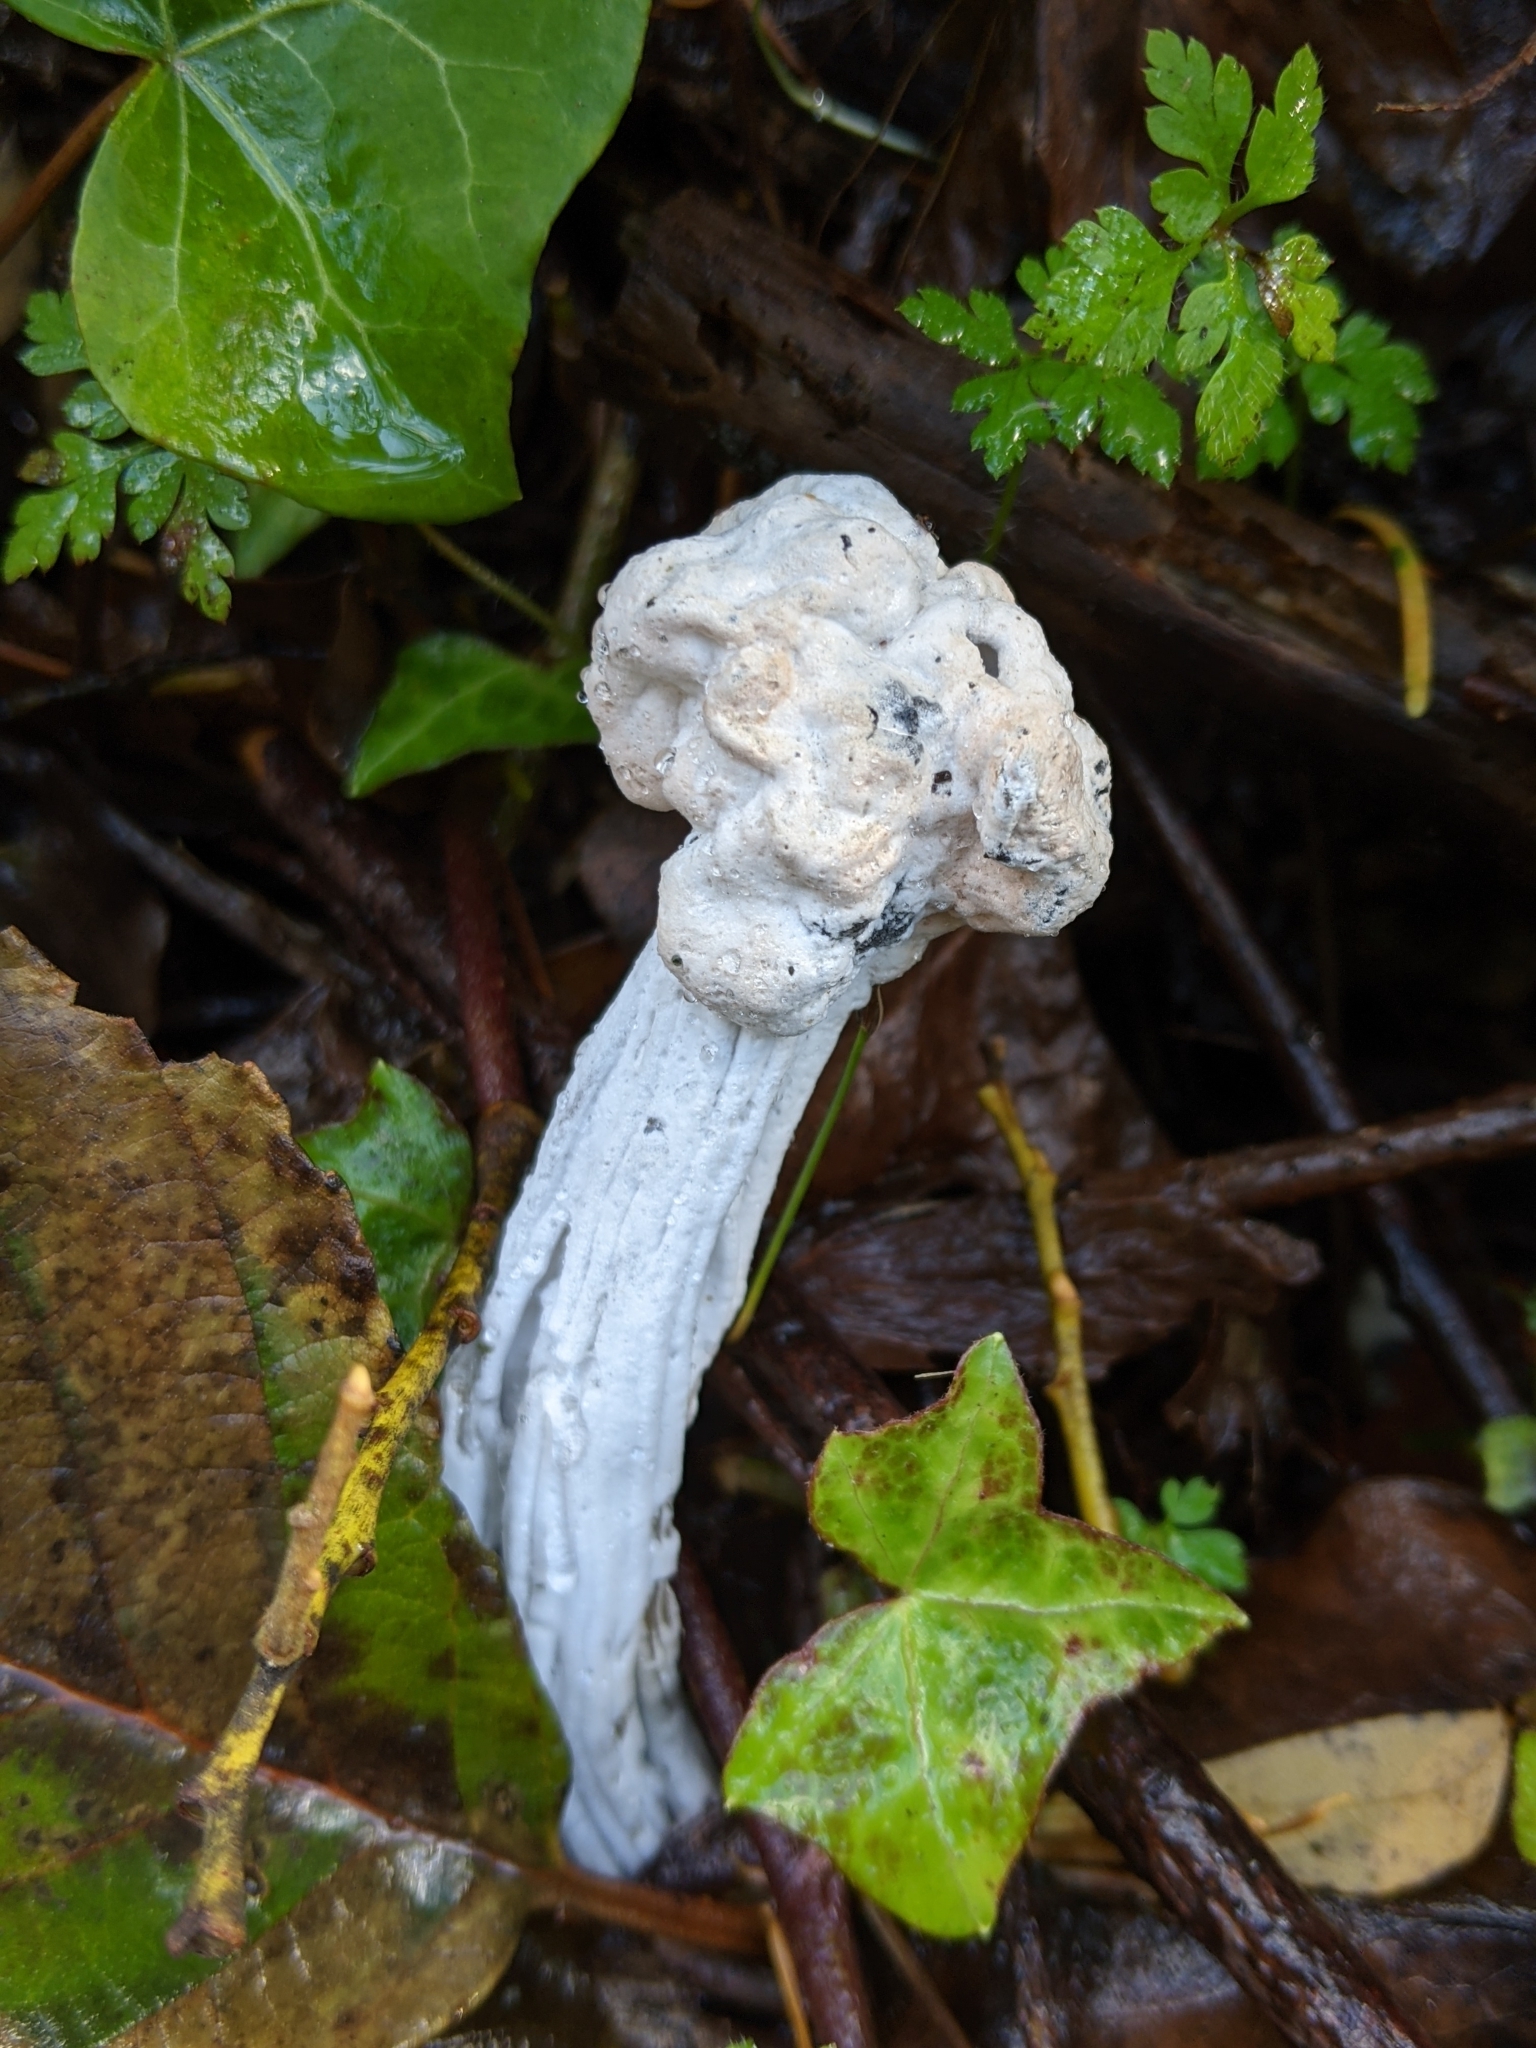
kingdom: Fungi
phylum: Ascomycota
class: Sordariomycetes
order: Hypocreales
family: Hypocreaceae
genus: Hypomyces
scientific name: Hypomyces cervinus
